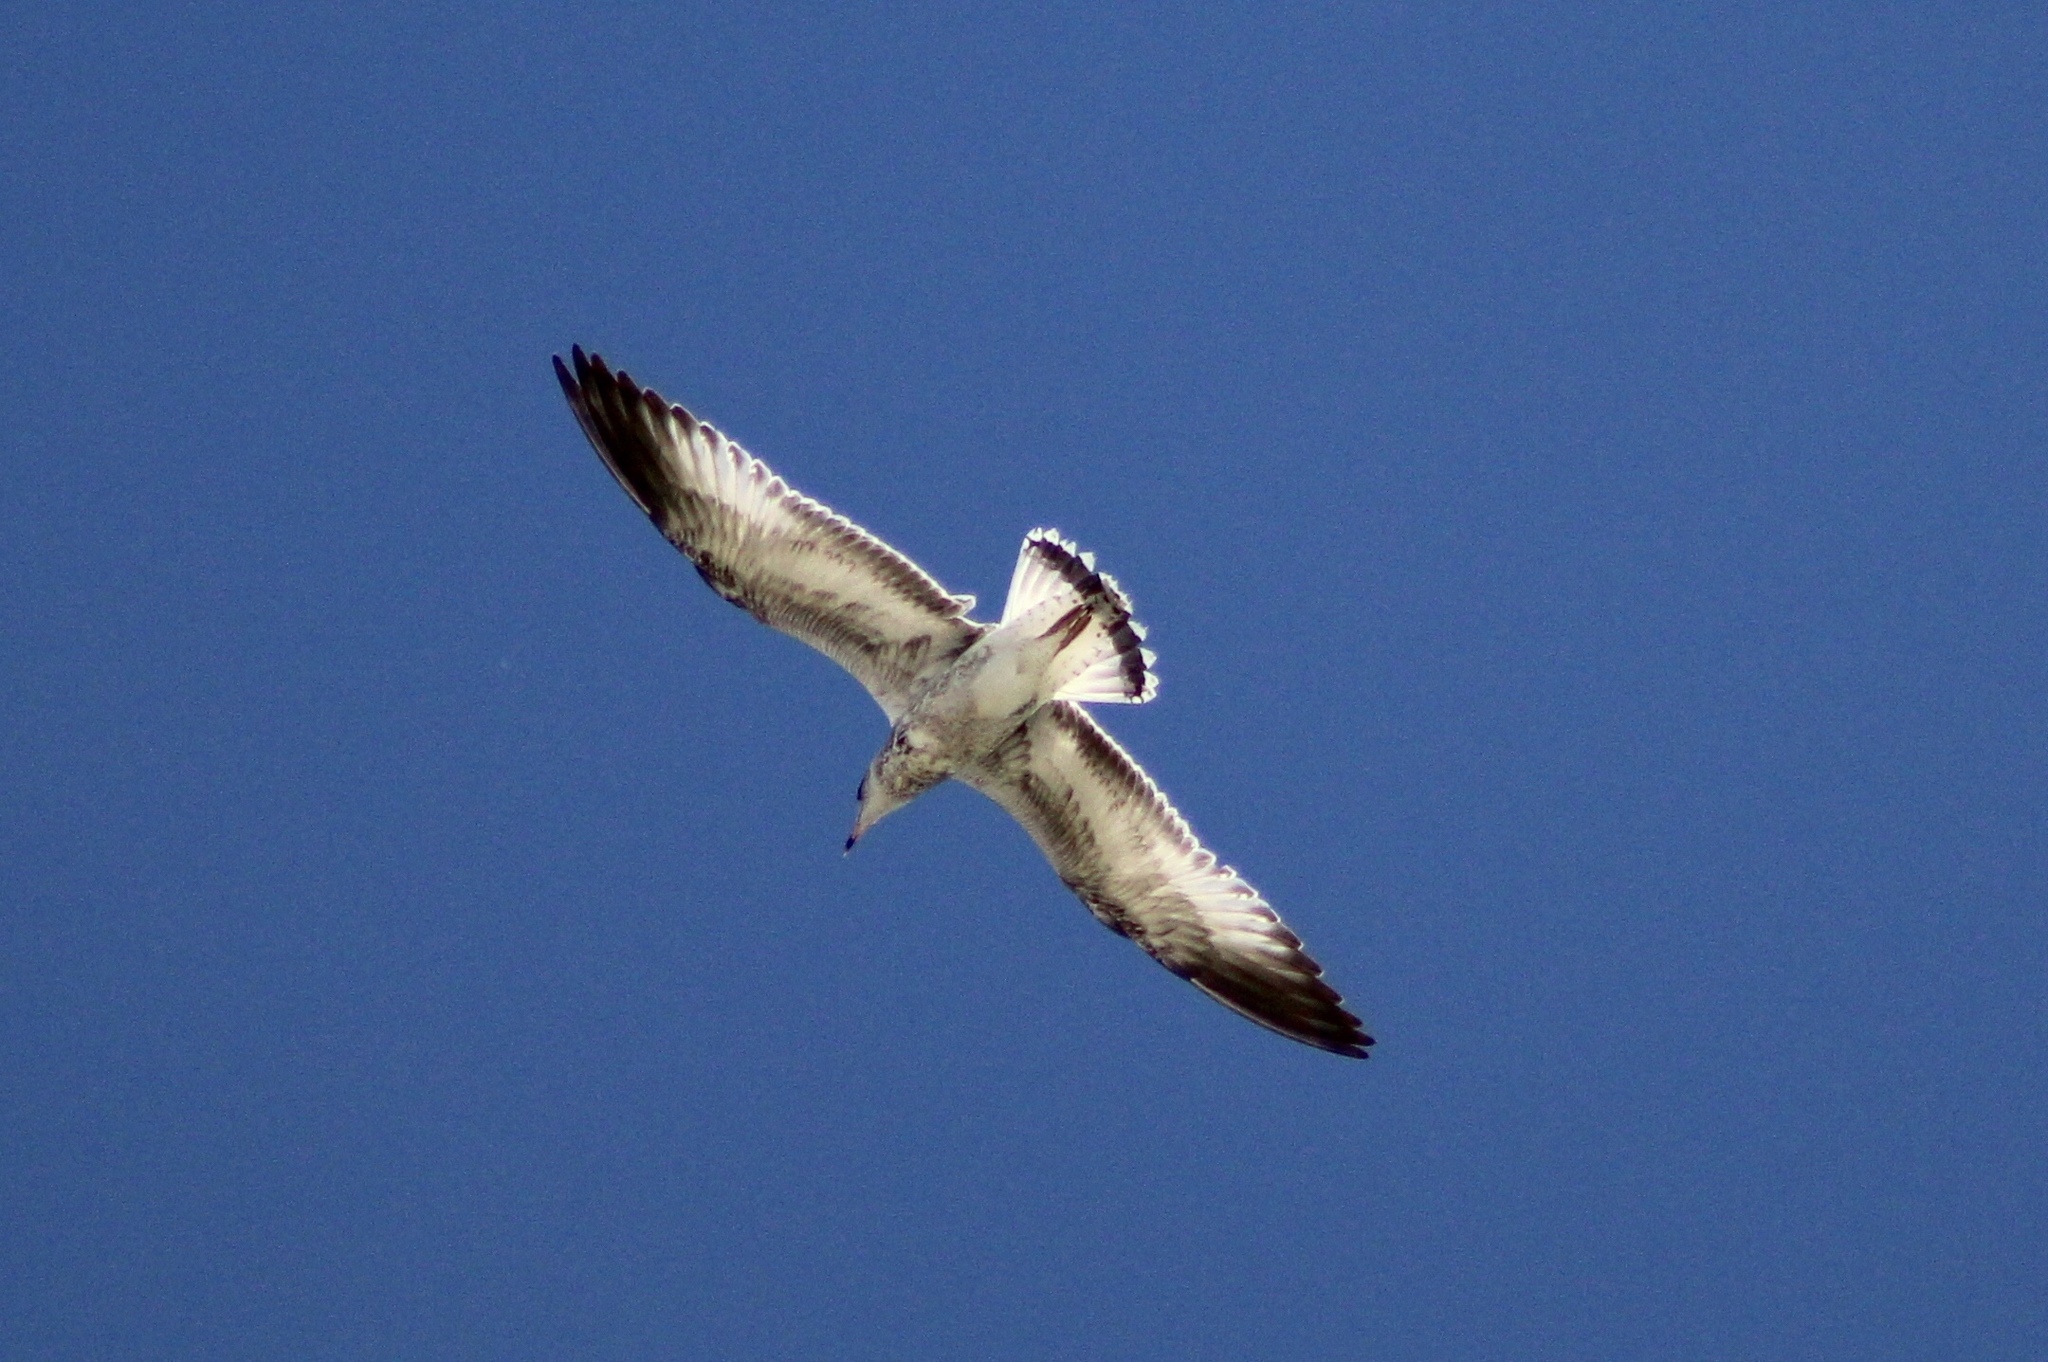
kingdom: Animalia
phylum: Chordata
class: Aves
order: Charadriiformes
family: Laridae
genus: Larus
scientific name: Larus delawarensis
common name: Ring-billed gull
